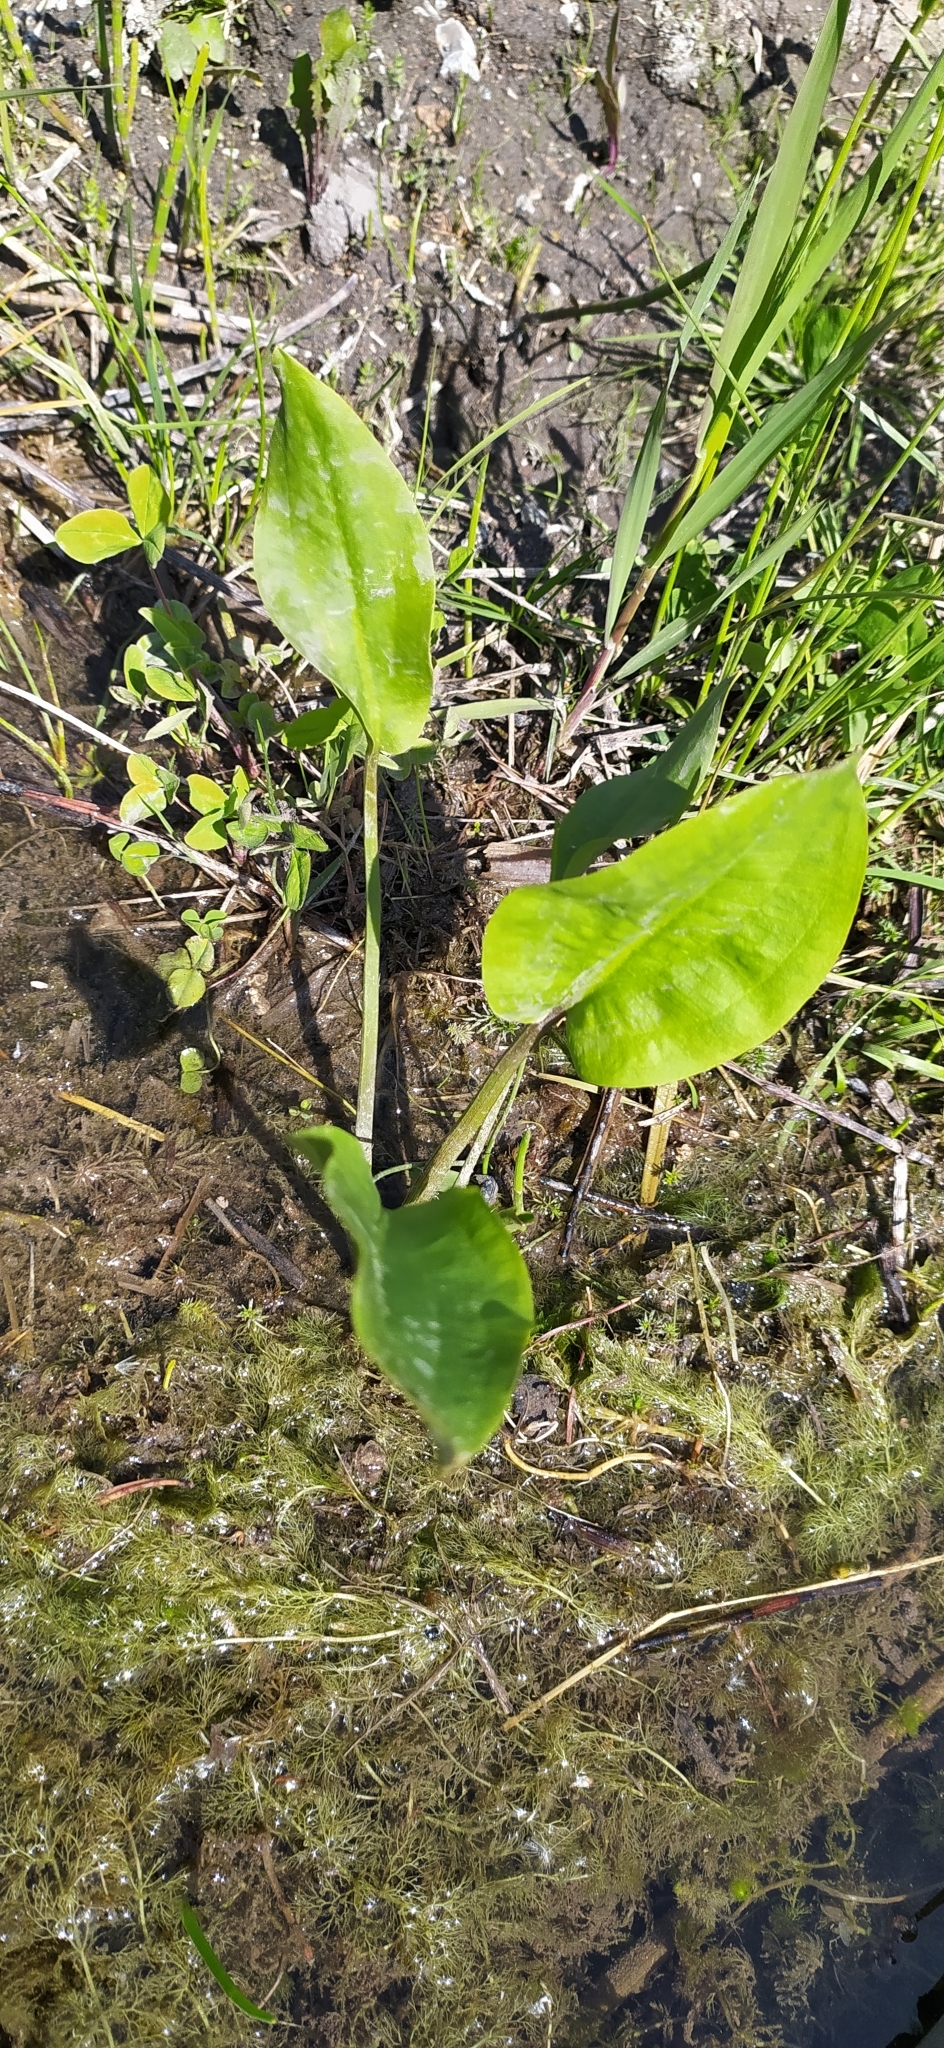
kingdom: Plantae
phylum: Tracheophyta
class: Liliopsida
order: Alismatales
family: Alismataceae
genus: Alisma
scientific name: Alisma plantago-aquatica
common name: Water-plantain
